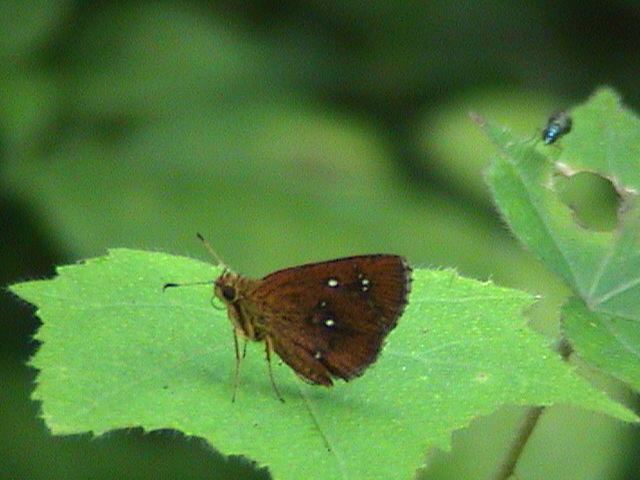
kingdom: Animalia
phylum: Arthropoda
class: Insecta
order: Lepidoptera
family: Hesperiidae
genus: Iambrix
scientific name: Iambrix salsala
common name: Chestnut bob
